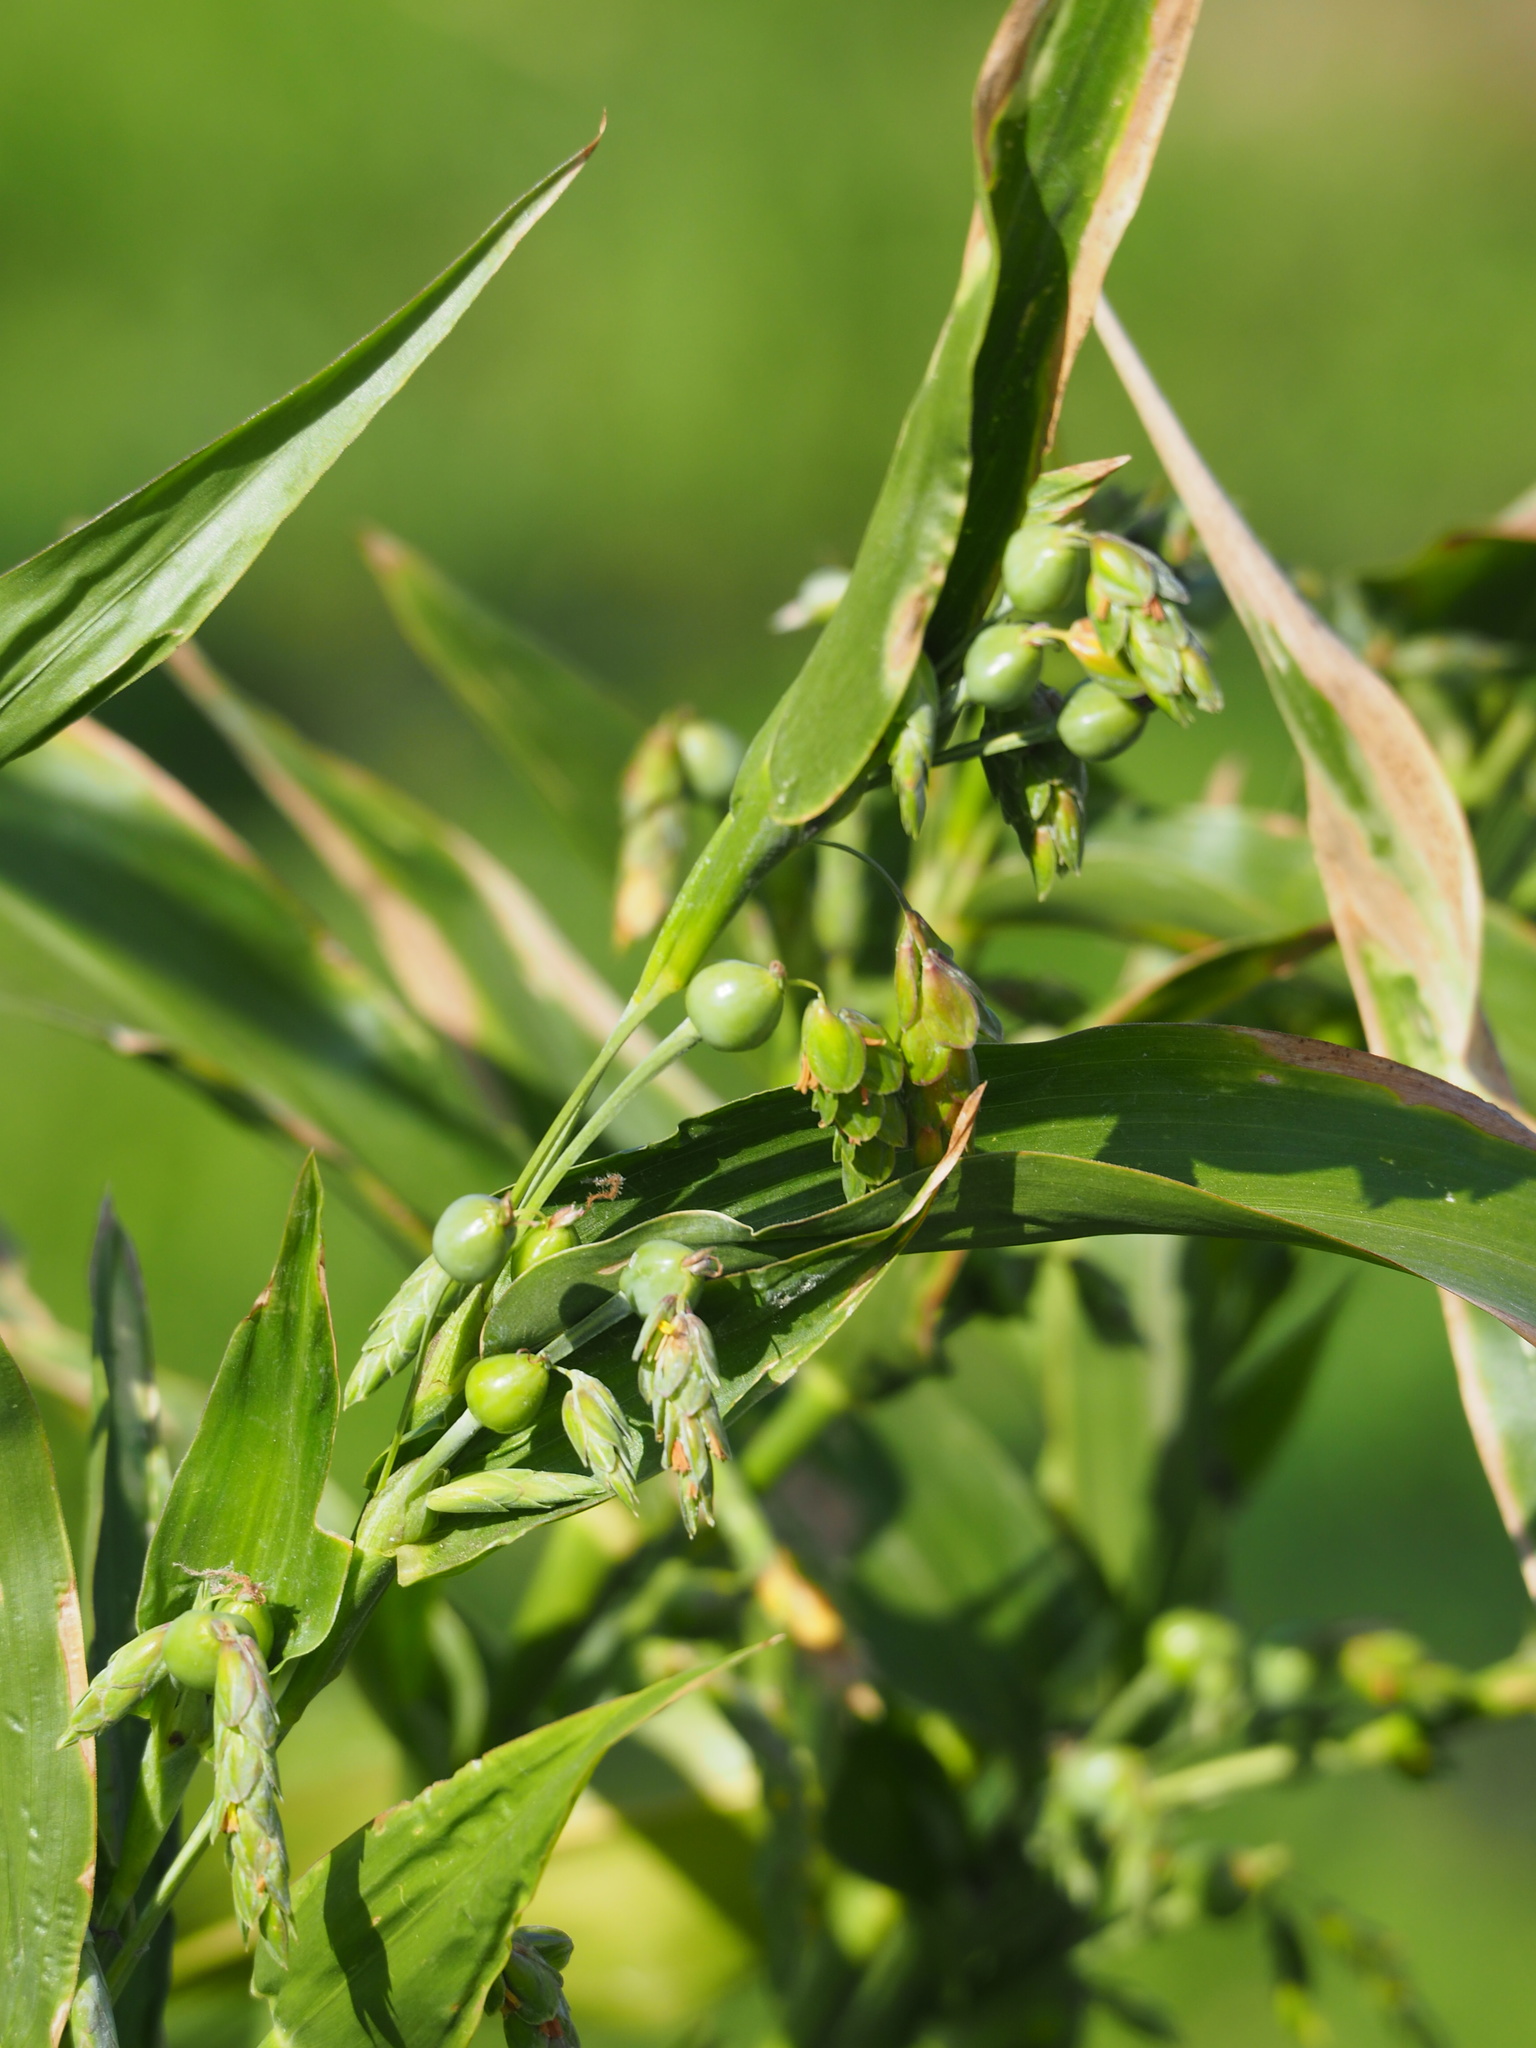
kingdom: Plantae
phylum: Tracheophyta
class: Liliopsida
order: Poales
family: Poaceae
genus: Coix
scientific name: Coix lacryma-jobi
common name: Job's tears
